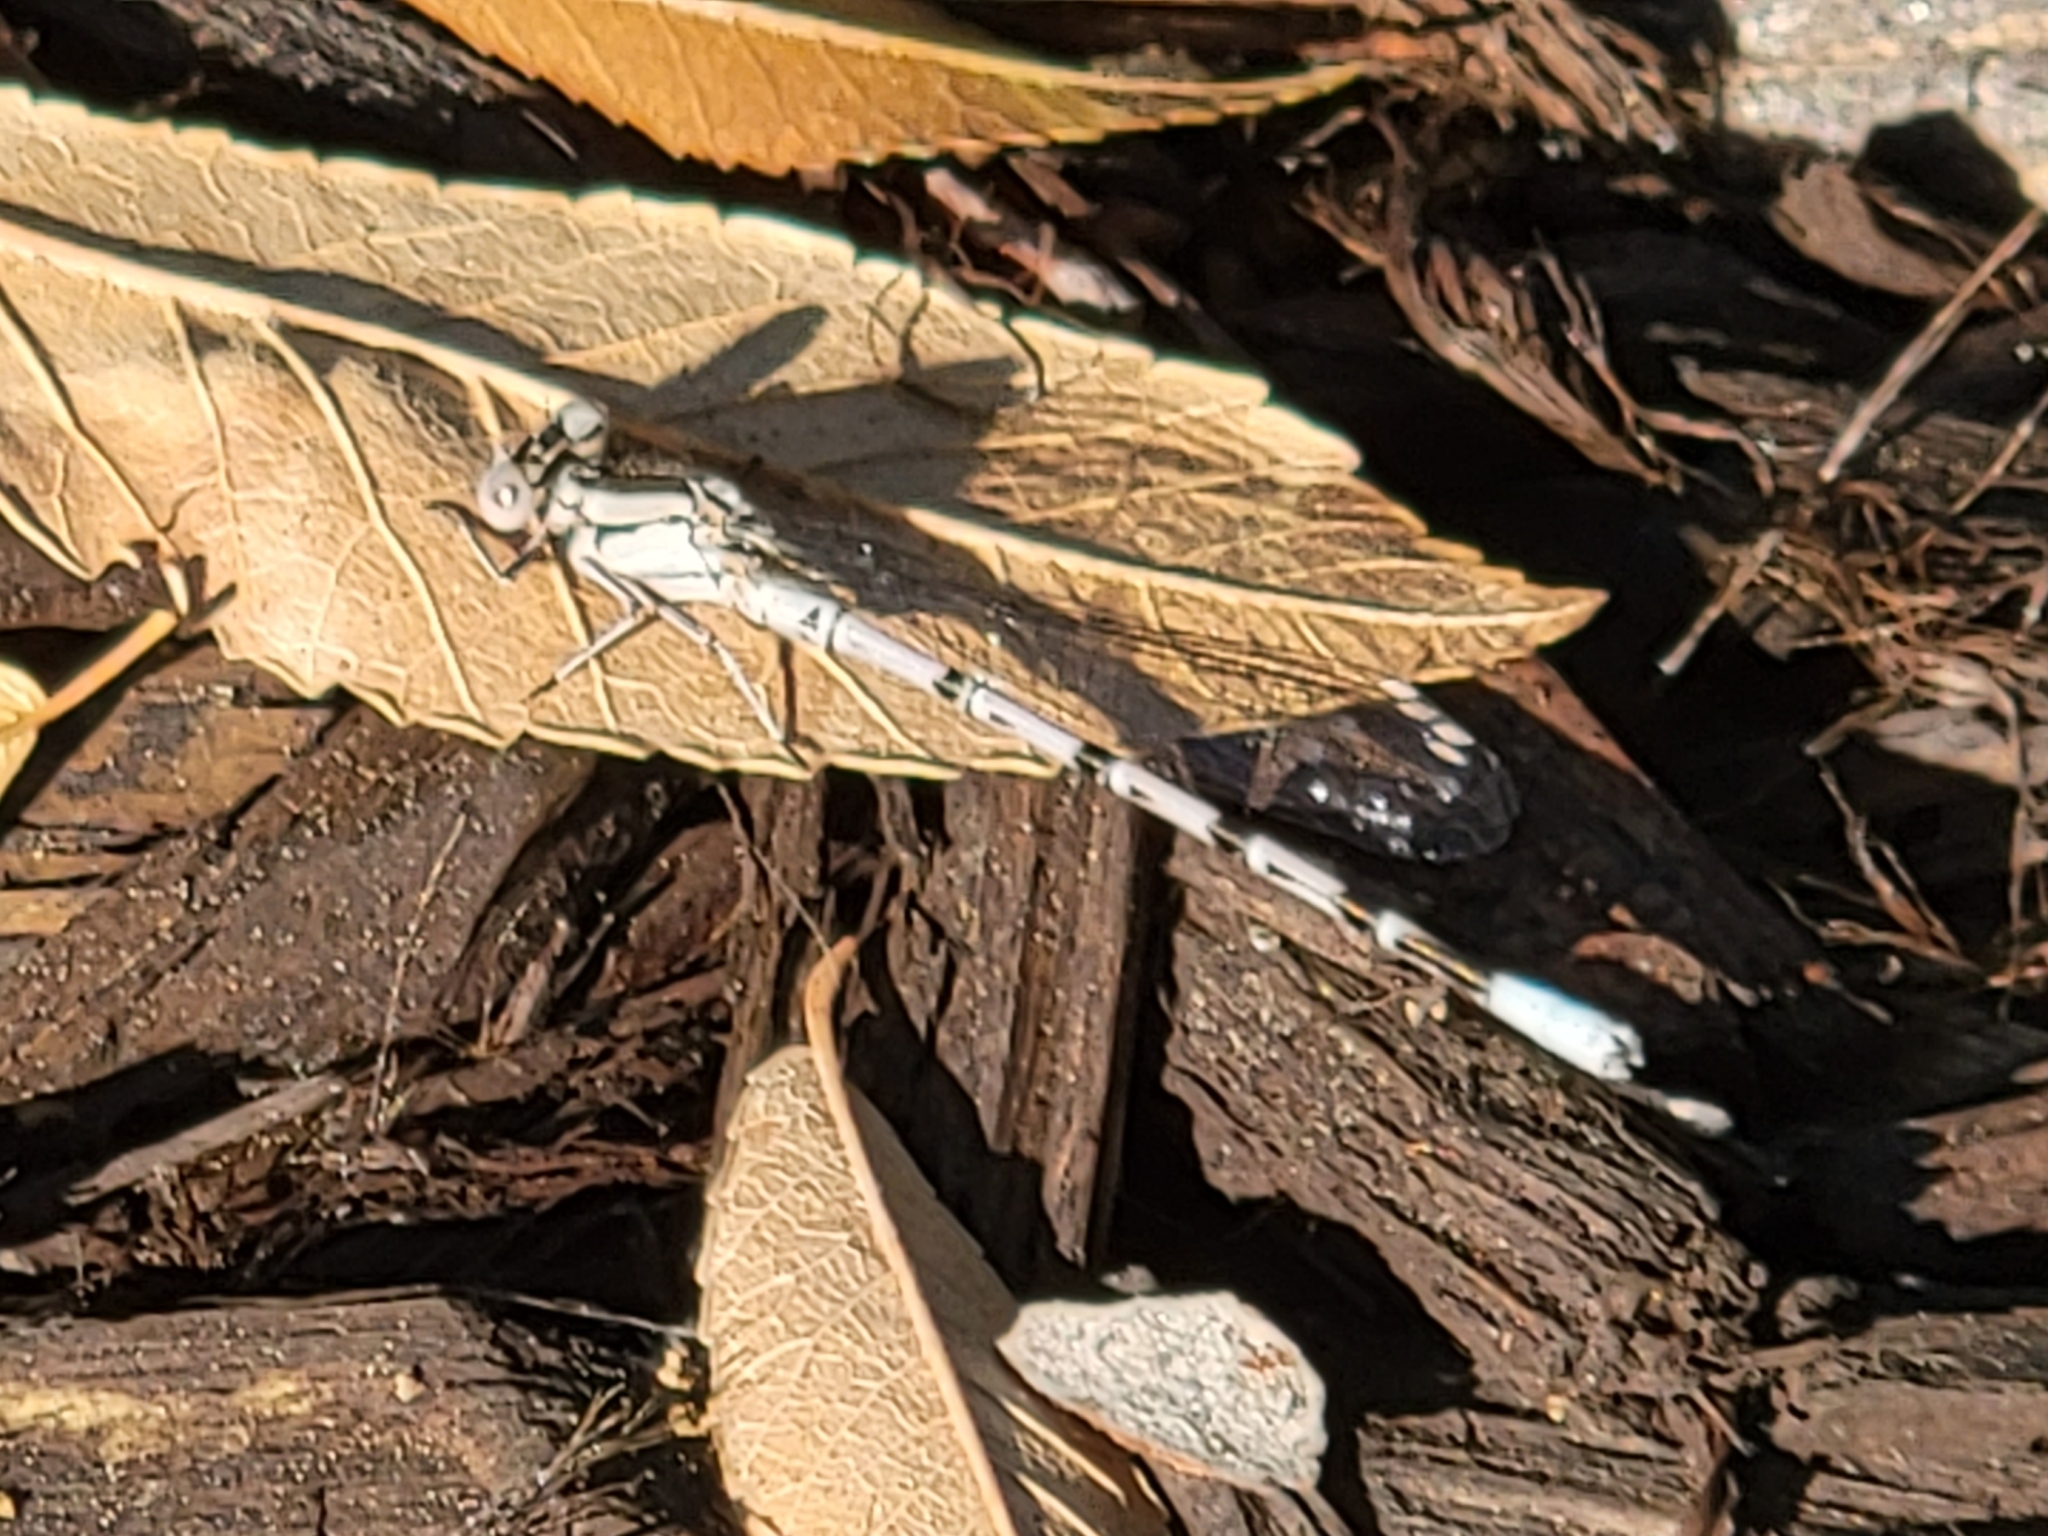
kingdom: Animalia
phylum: Arthropoda
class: Insecta
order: Odonata
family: Coenagrionidae
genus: Argia
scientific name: Argia vivida
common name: Vivid dancer
